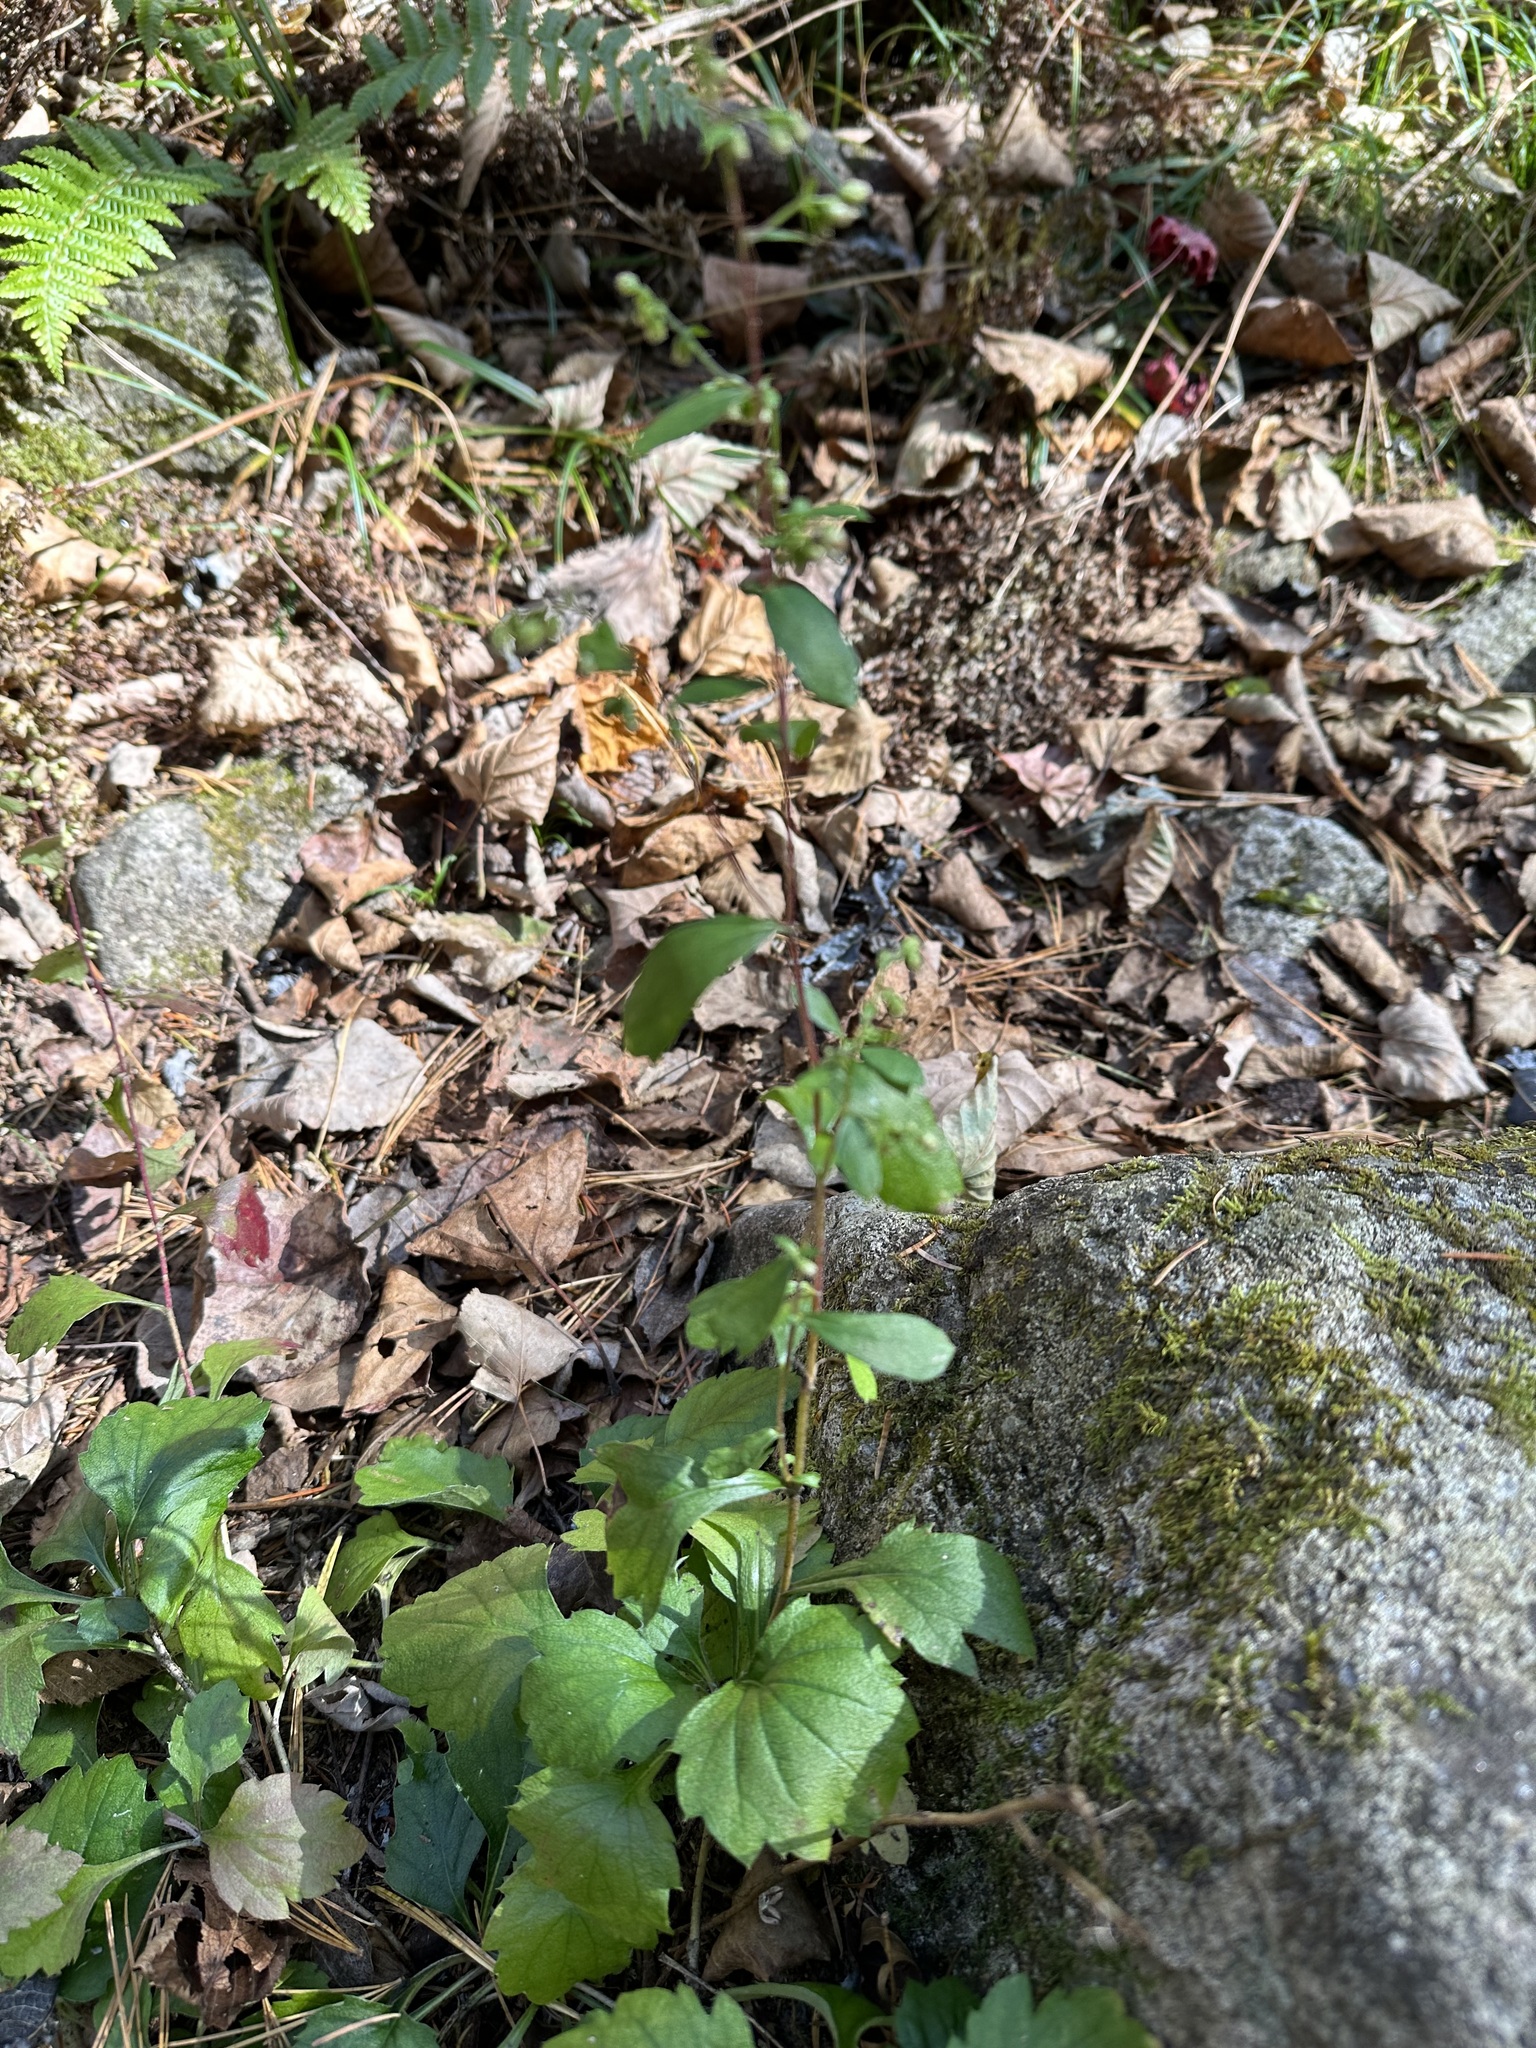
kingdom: Plantae
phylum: Tracheophyta
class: Magnoliopsida
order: Asterales
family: Asteraceae
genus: Artemisia
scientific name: Artemisia keiskeana
